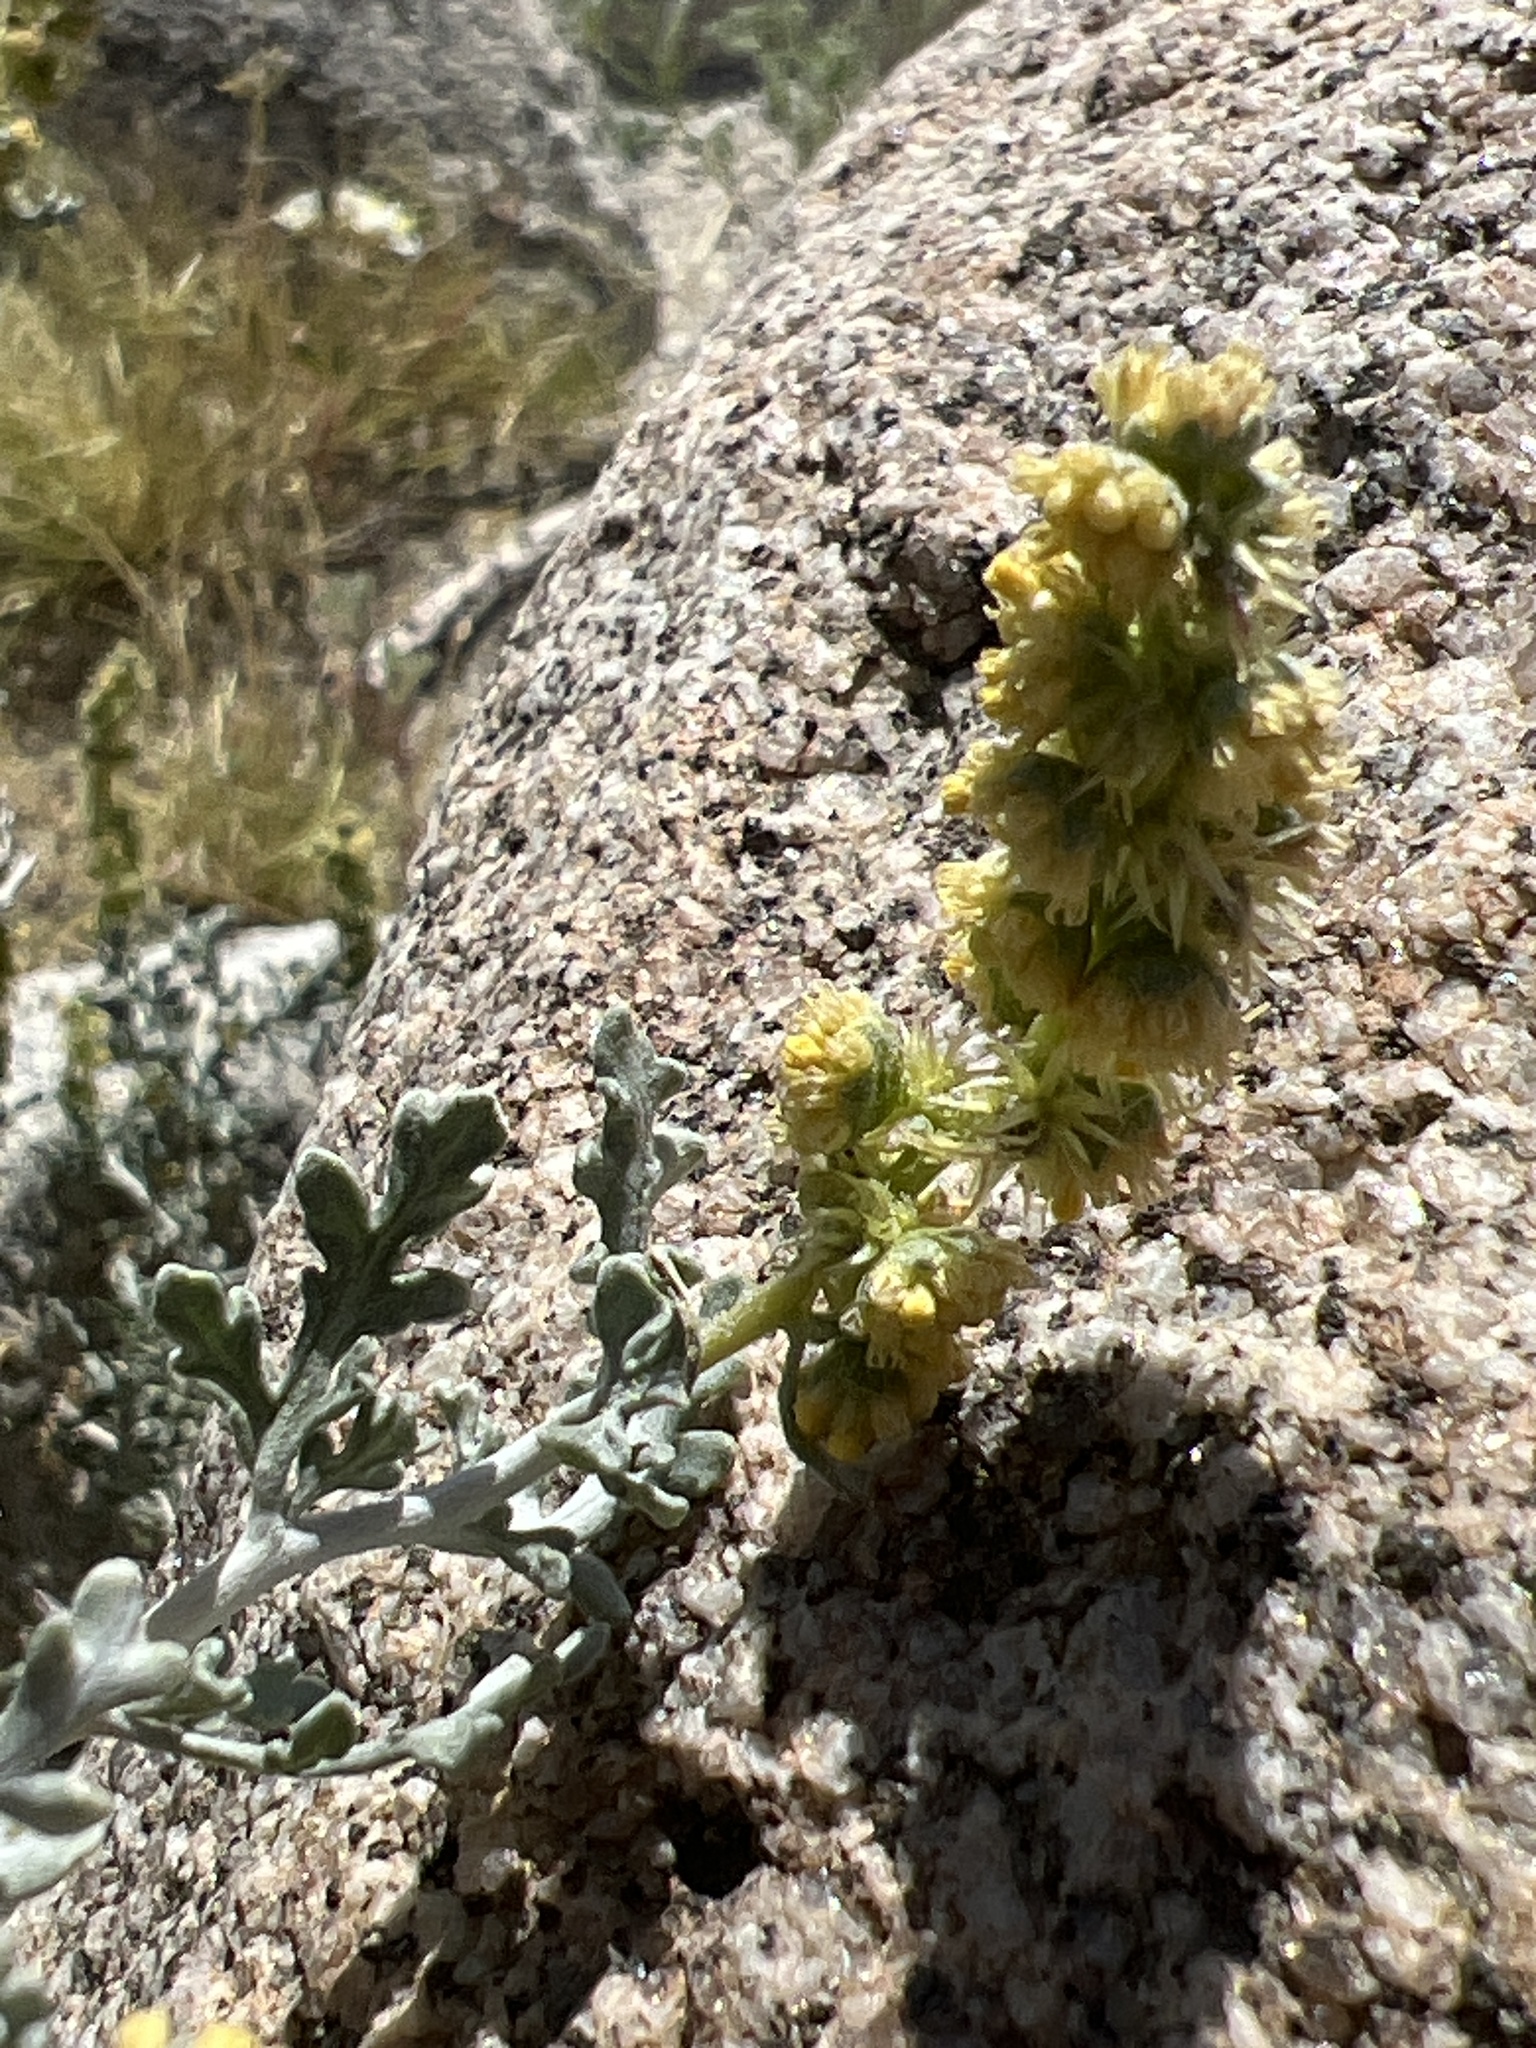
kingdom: Plantae
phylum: Tracheophyta
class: Magnoliopsida
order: Asterales
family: Asteraceae
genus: Ambrosia
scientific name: Ambrosia dumosa
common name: Bur-sage
